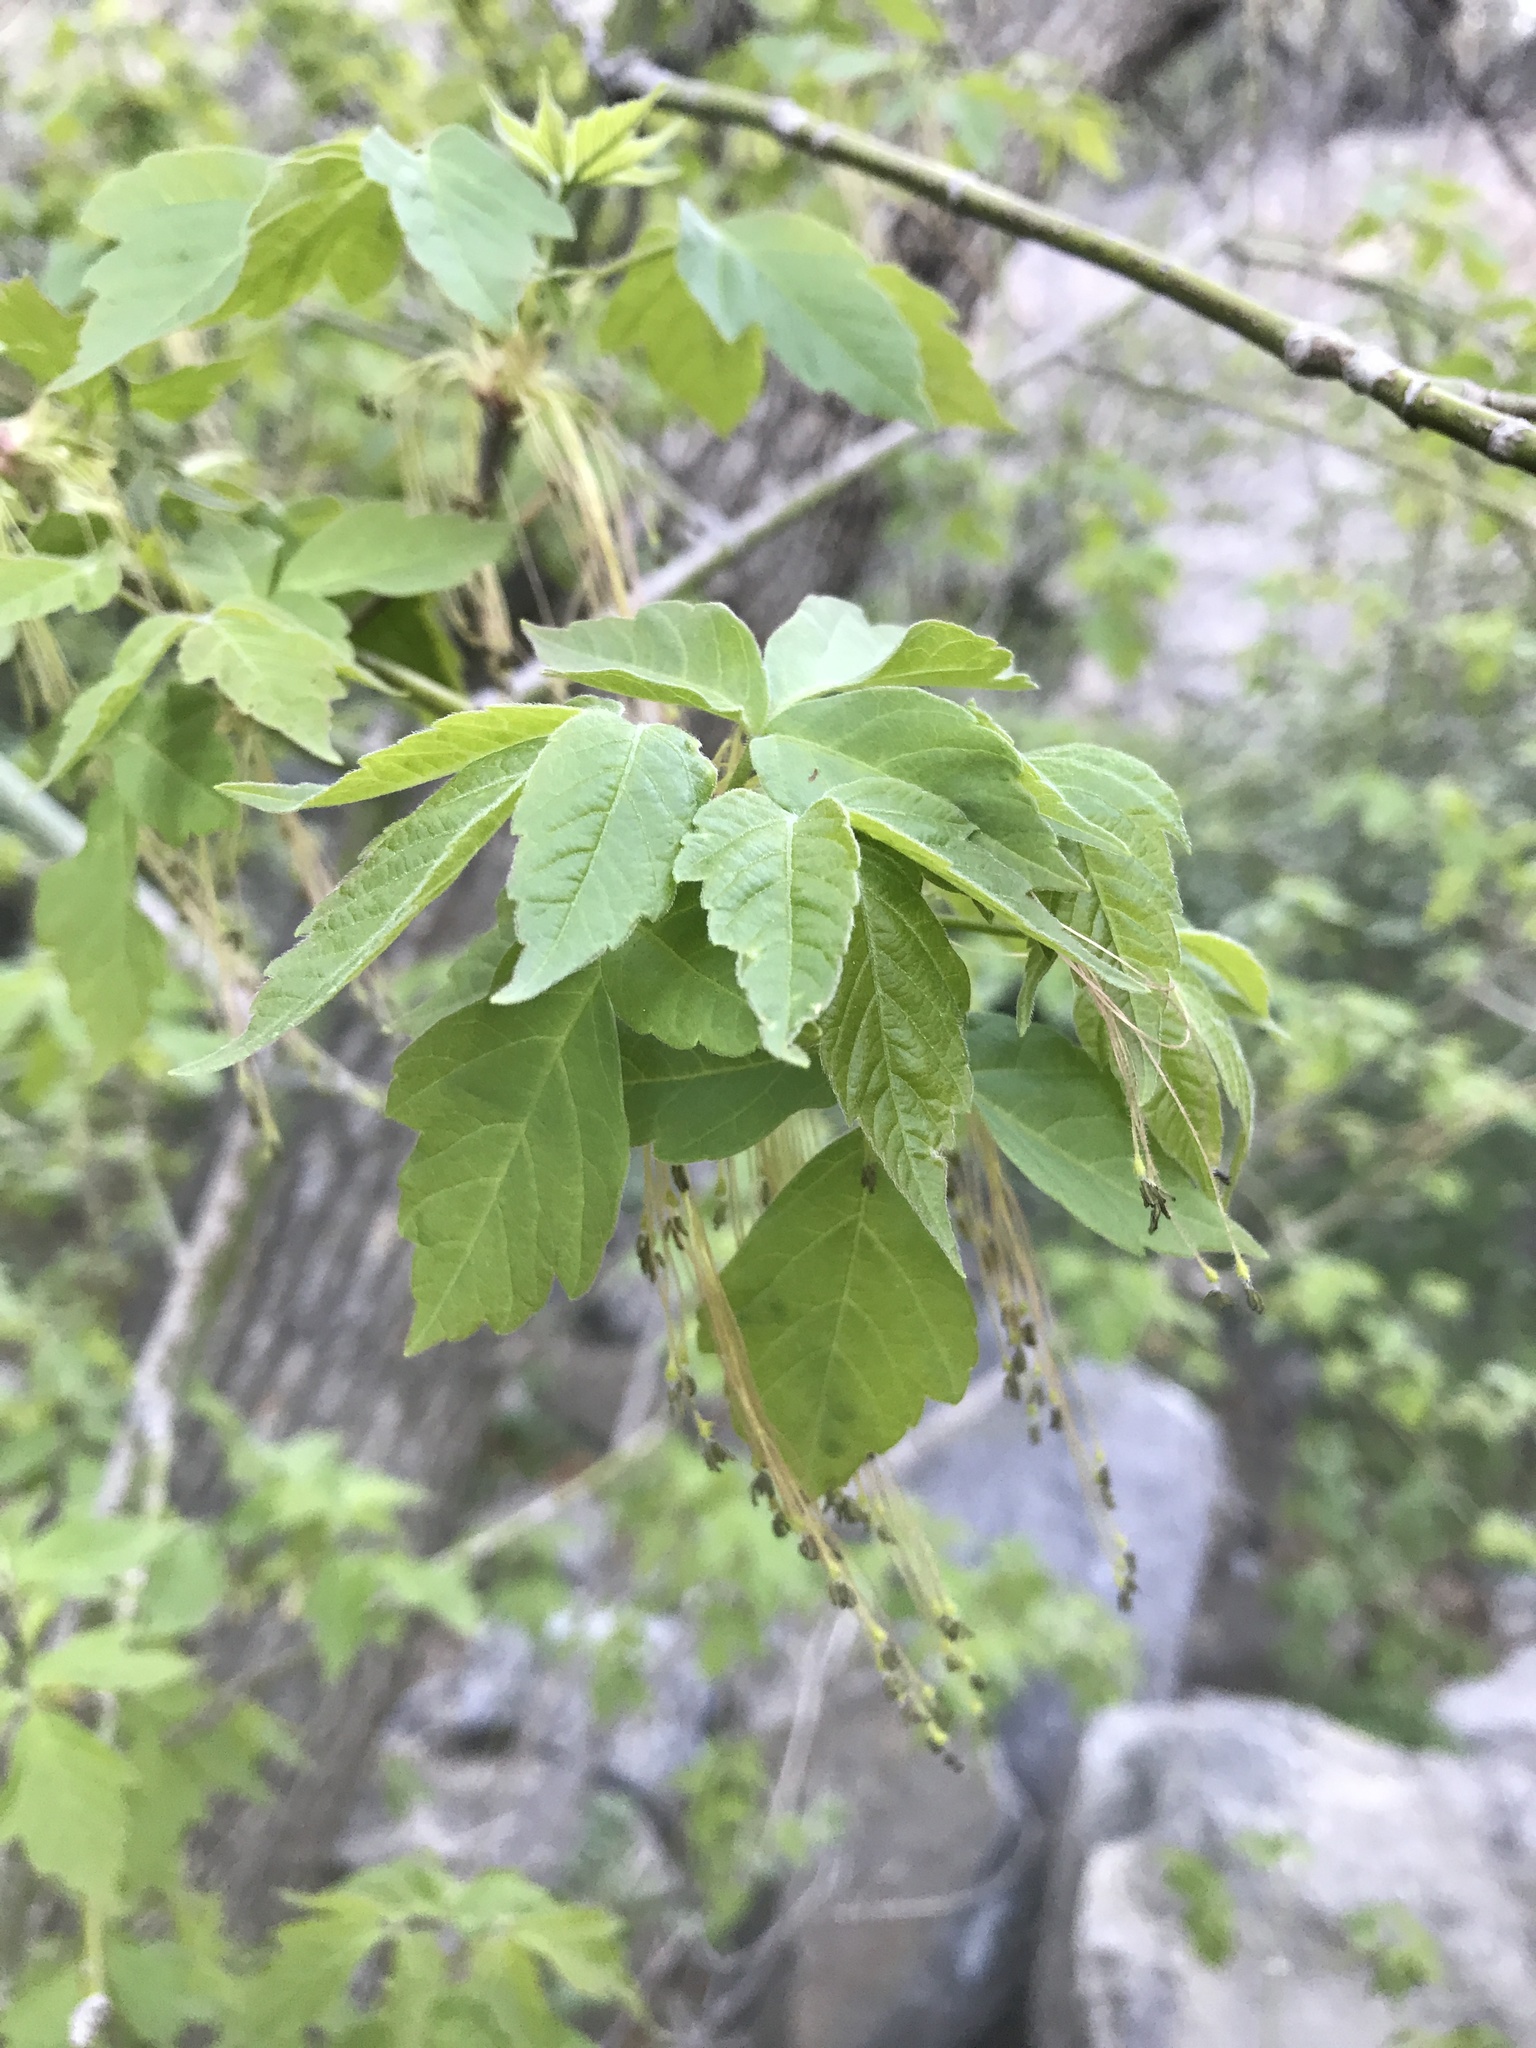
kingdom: Plantae
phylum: Tracheophyta
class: Magnoliopsida
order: Sapindales
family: Sapindaceae
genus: Acer
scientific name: Acer negundo
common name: Ashleaf maple
